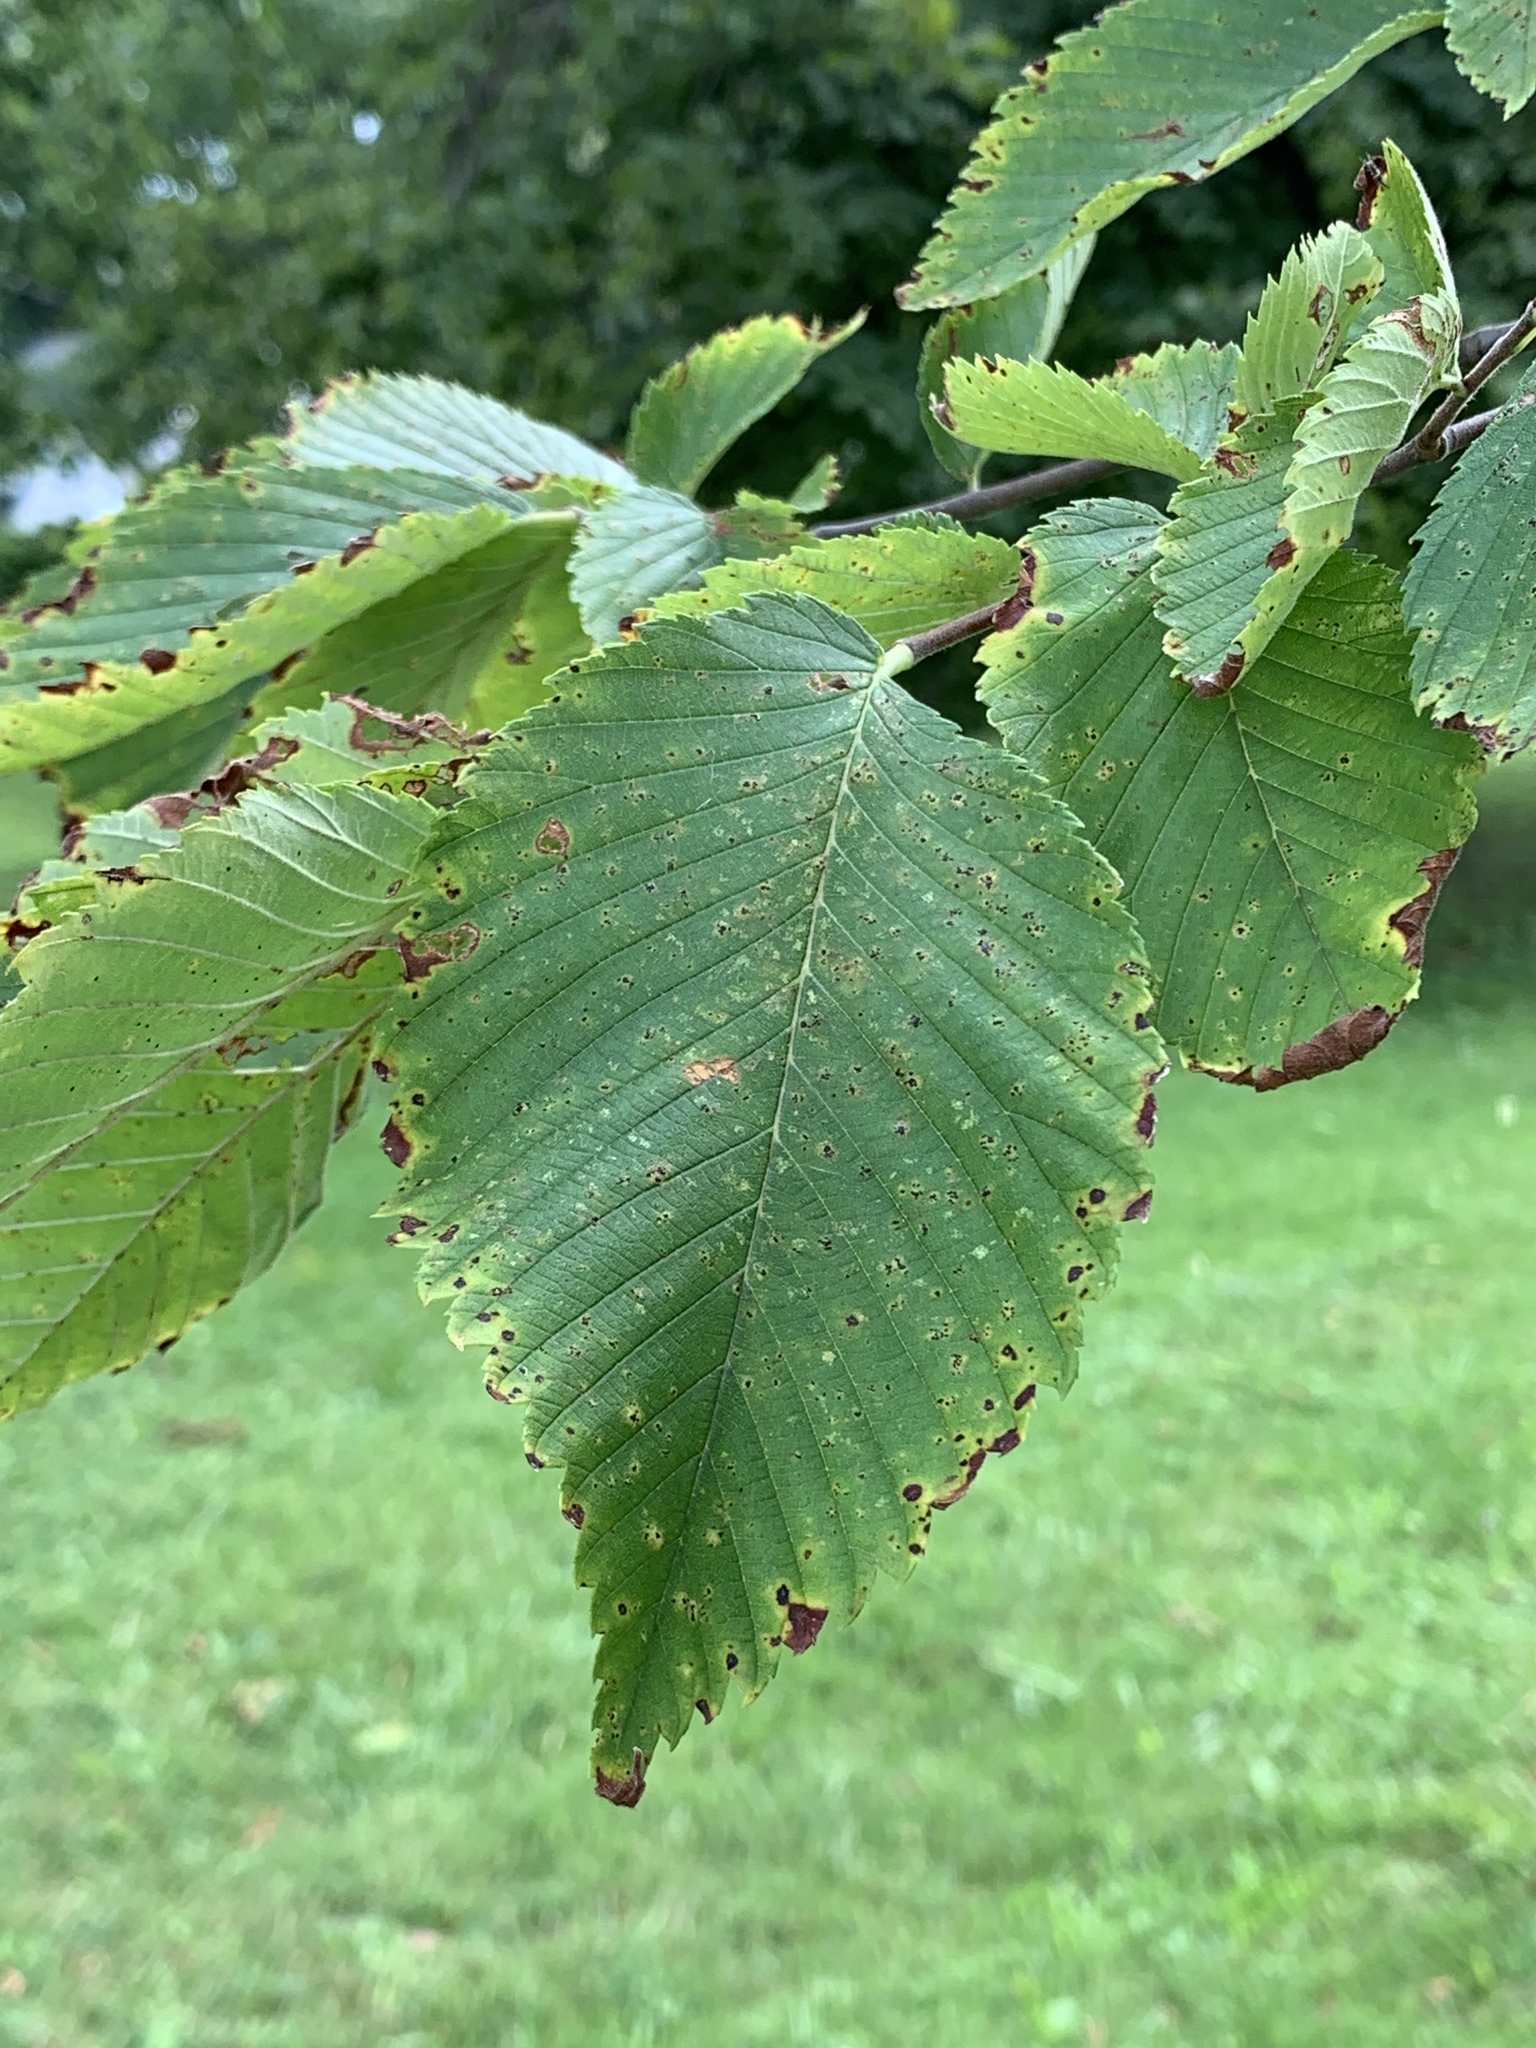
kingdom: Plantae
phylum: Tracheophyta
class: Magnoliopsida
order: Rosales
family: Ulmaceae
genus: Ulmus
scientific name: Ulmus americana
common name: American elm
